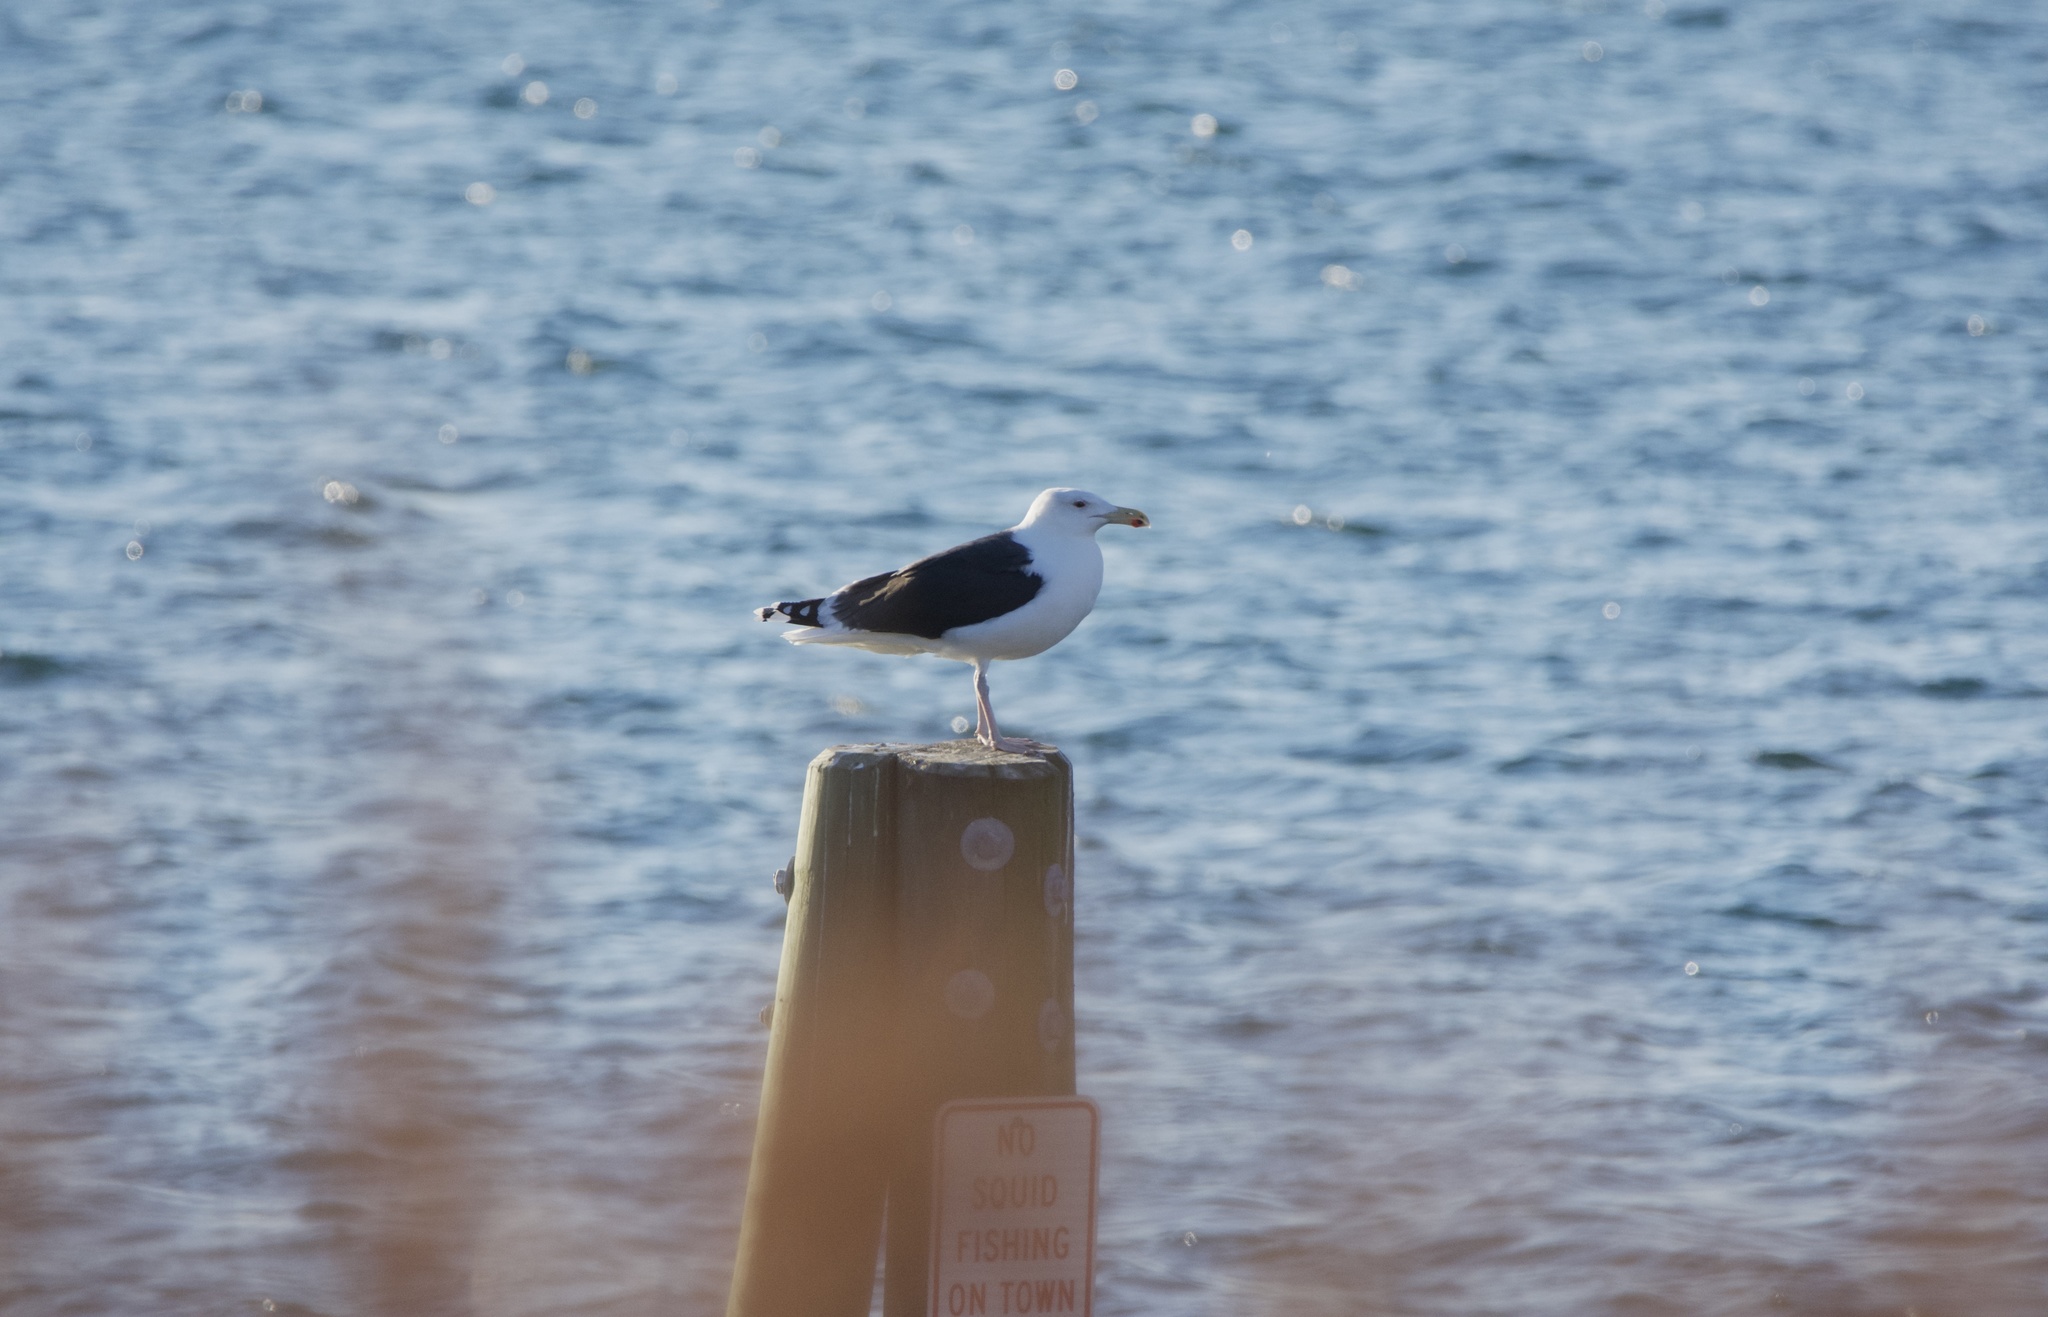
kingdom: Animalia
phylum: Chordata
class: Aves
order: Charadriiformes
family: Laridae
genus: Larus
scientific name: Larus marinus
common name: Great black-backed gull
